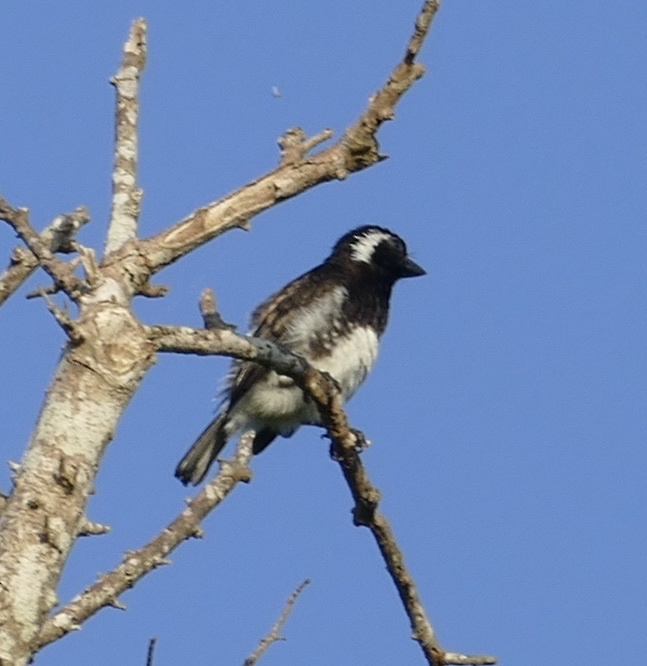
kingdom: Animalia
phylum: Chordata
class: Aves
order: Piciformes
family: Lybiidae
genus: Stactolaema
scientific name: Stactolaema leucotis
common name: White-eared barbet
